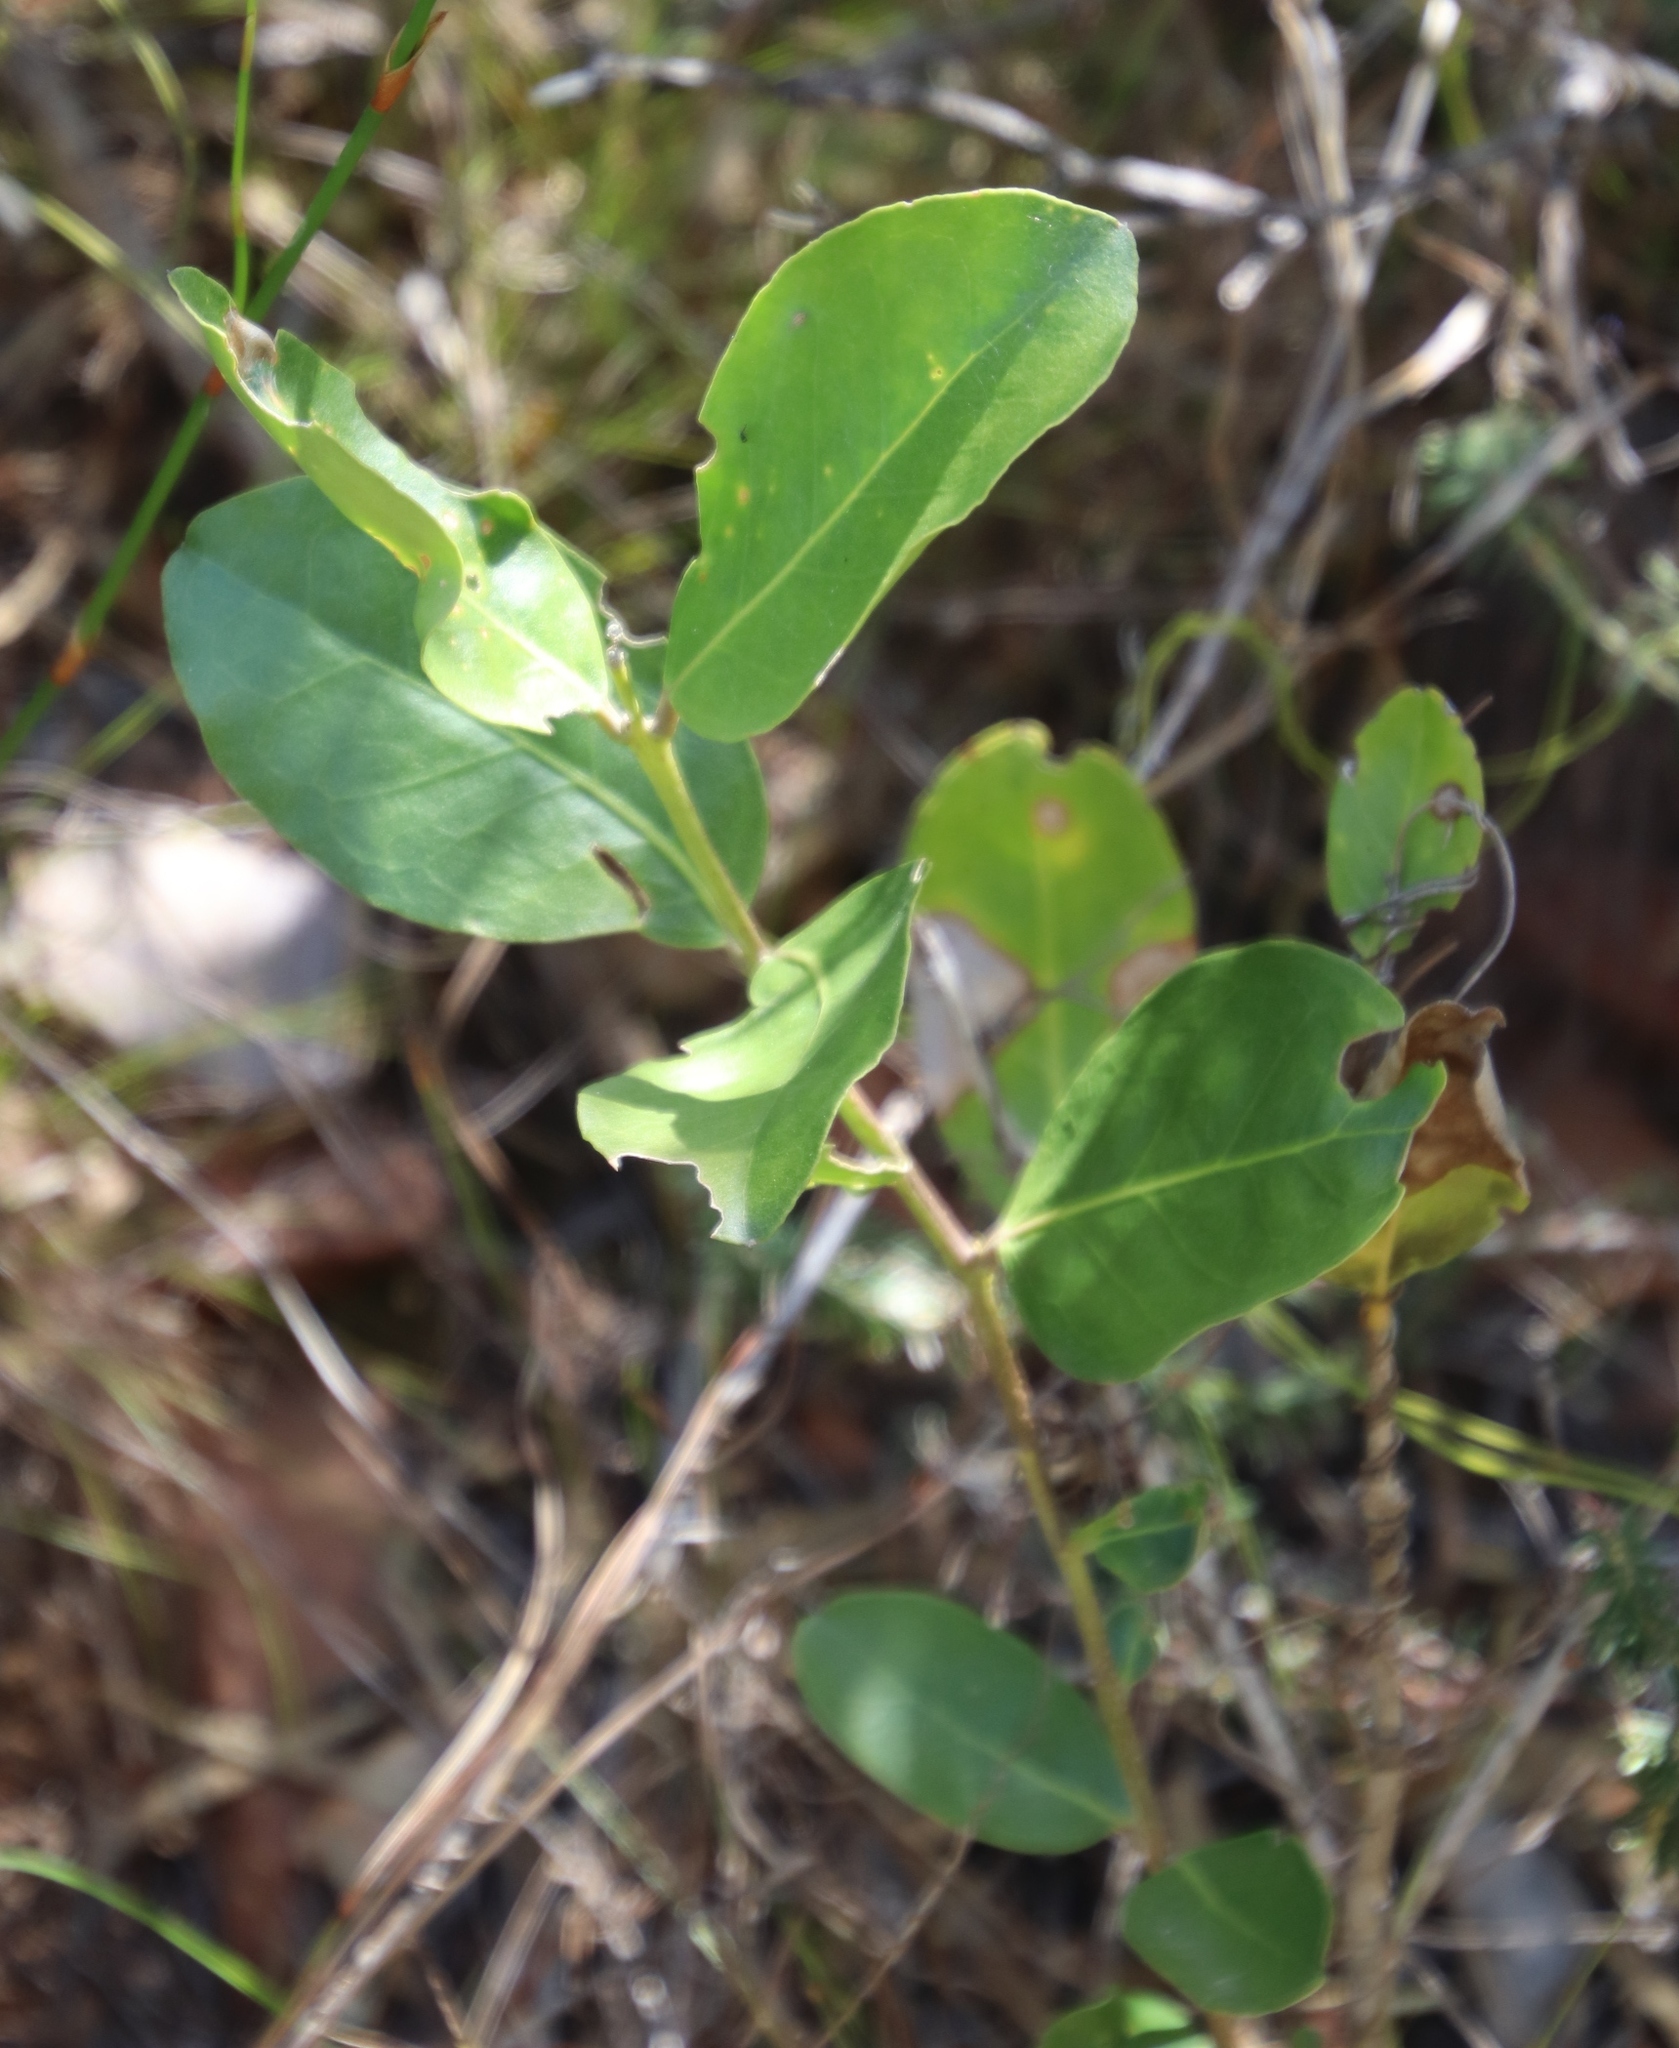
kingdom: Plantae
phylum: Tracheophyta
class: Magnoliopsida
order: Lamiales
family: Oleaceae
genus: Olea
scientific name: Olea capensis
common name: Black ironwood
